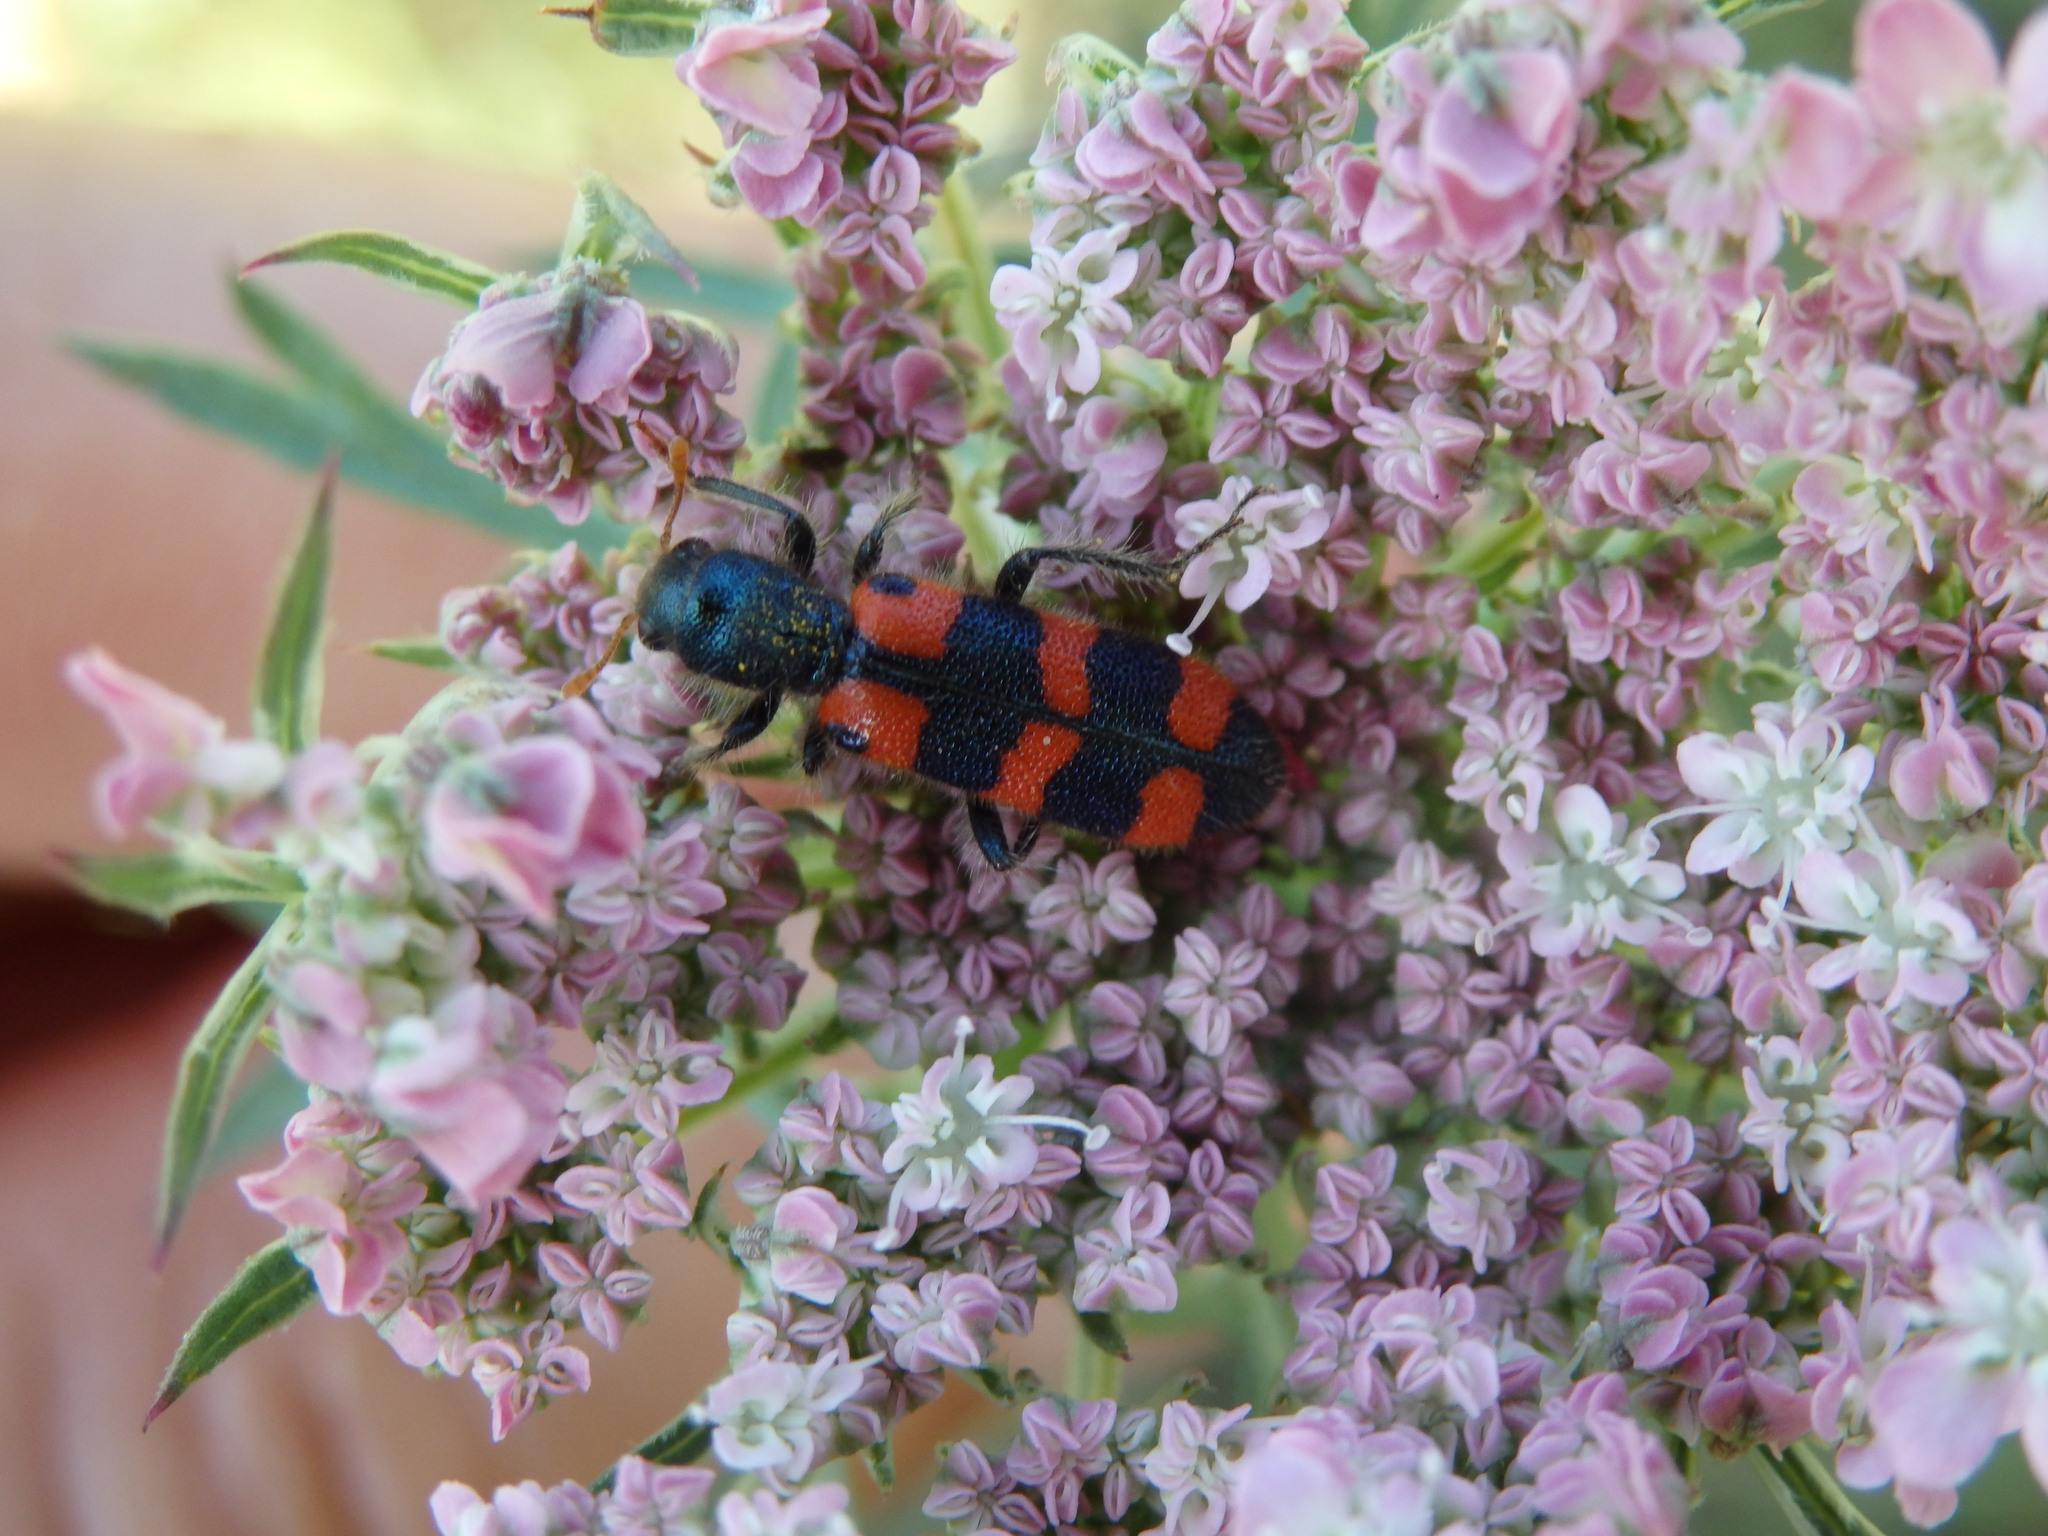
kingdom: Animalia
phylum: Arthropoda
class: Insecta
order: Coleoptera
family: Cleridae
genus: Trichodes
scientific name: Trichodes leucopsideus
